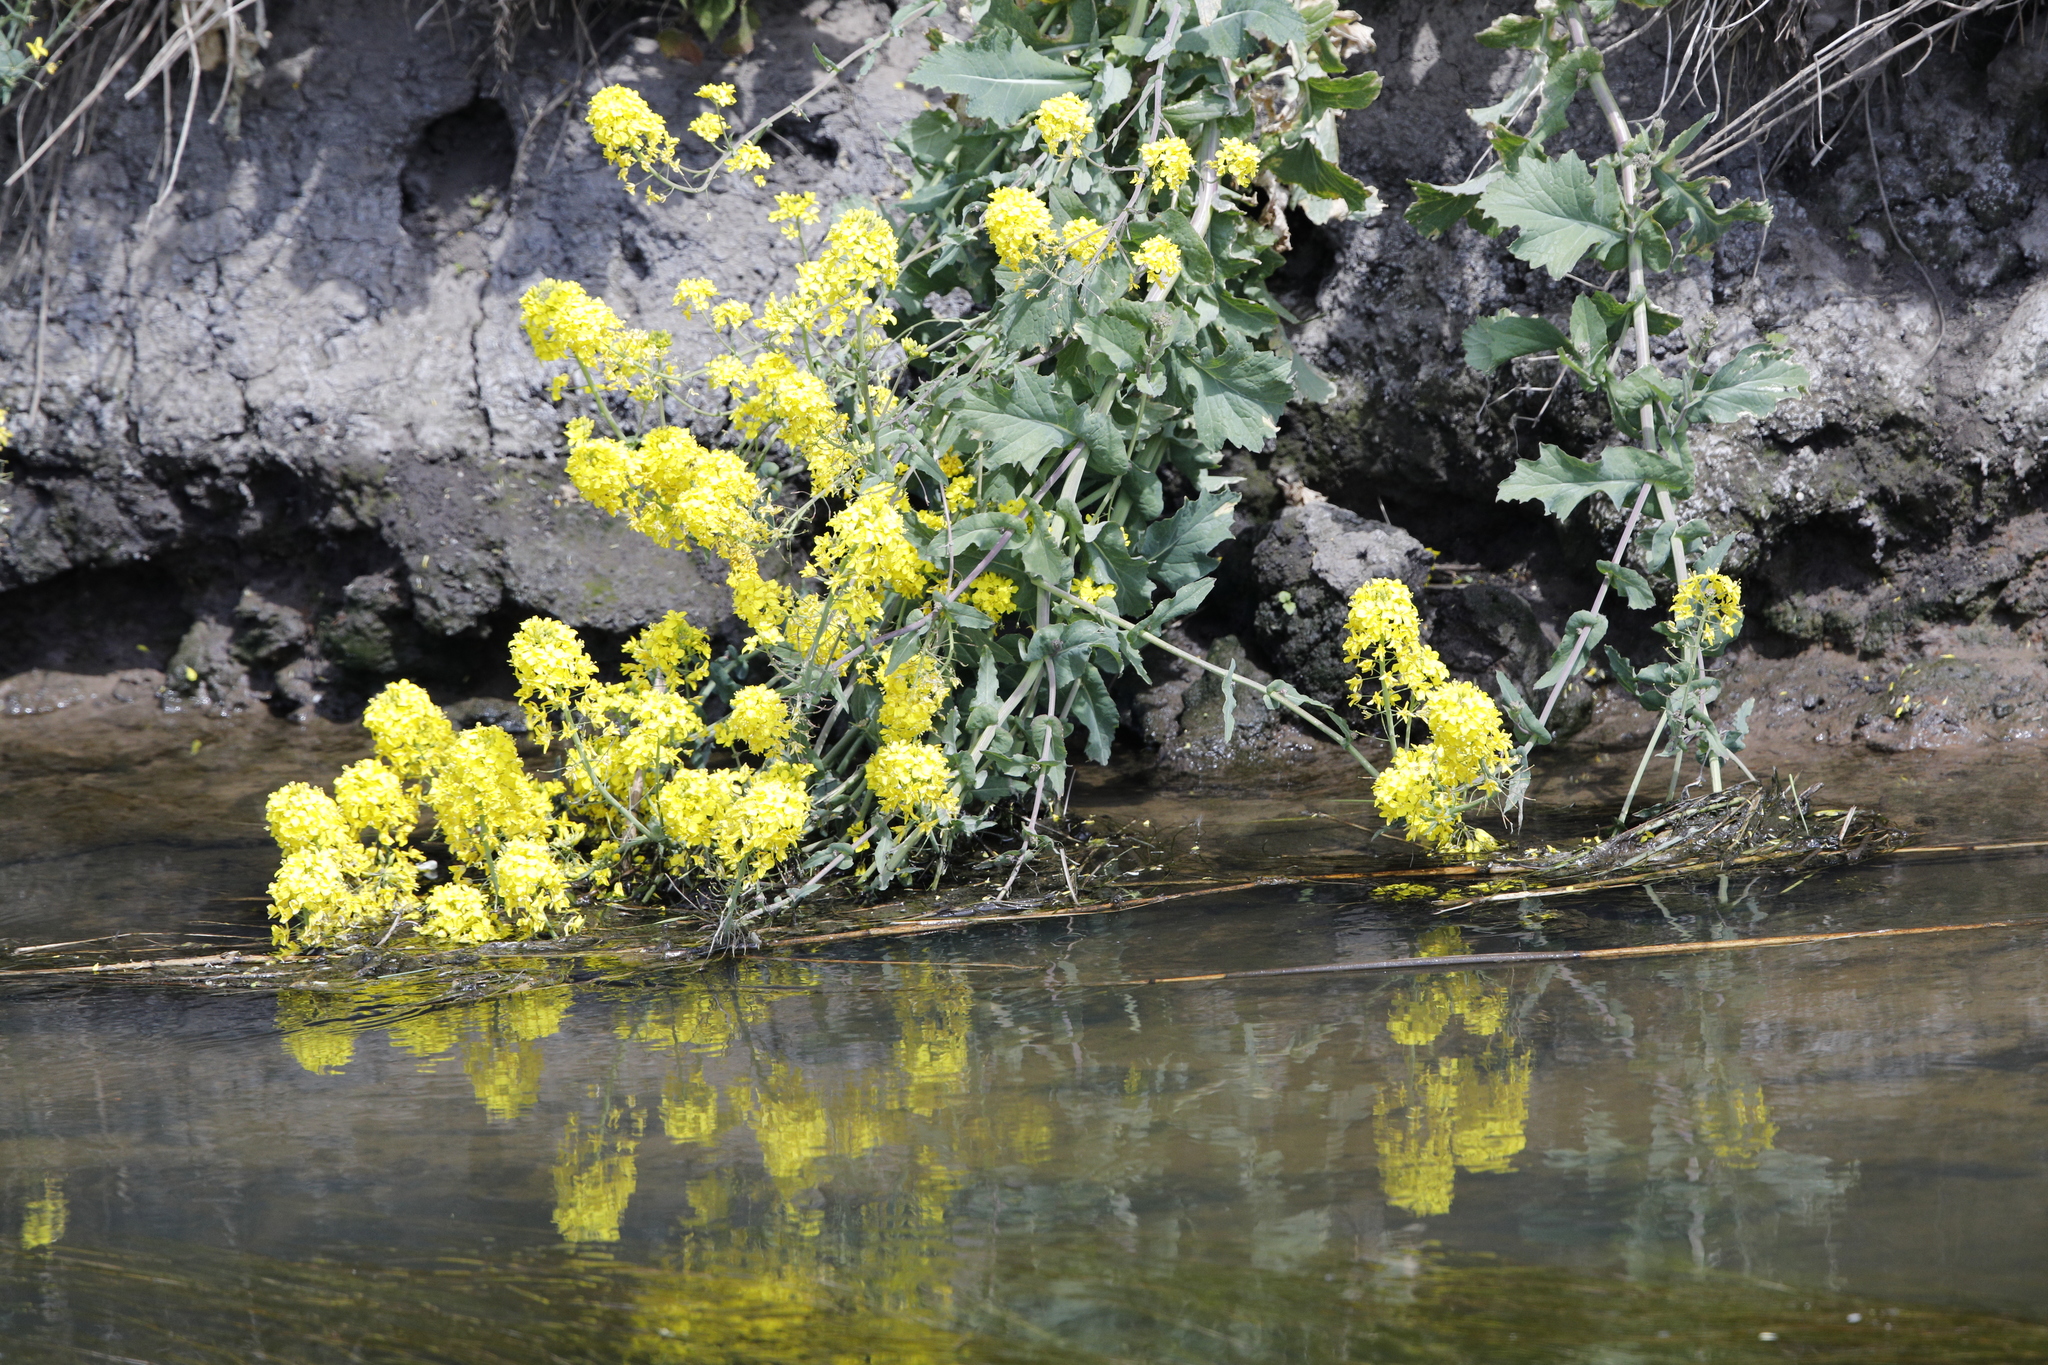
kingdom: Plantae
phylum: Tracheophyta
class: Magnoliopsida
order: Brassicales
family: Brassicaceae
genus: Brassica
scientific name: Brassica rapa
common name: Field mustard
